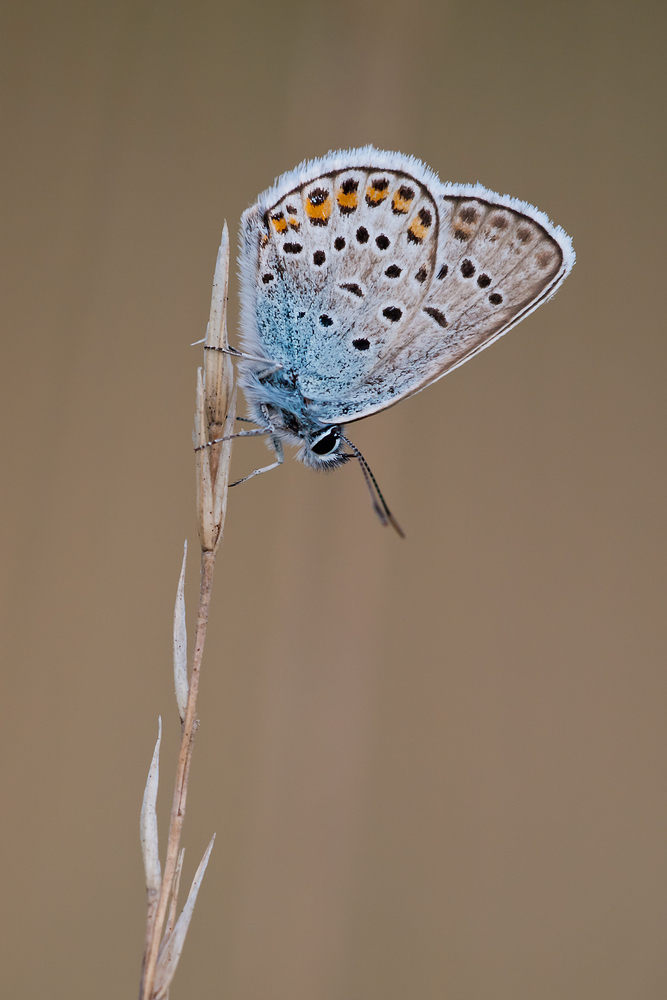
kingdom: Animalia
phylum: Arthropoda
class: Insecta
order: Lepidoptera
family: Lycaenidae
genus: Plebejus
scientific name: Plebejus argus
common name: Silver-studded blue
